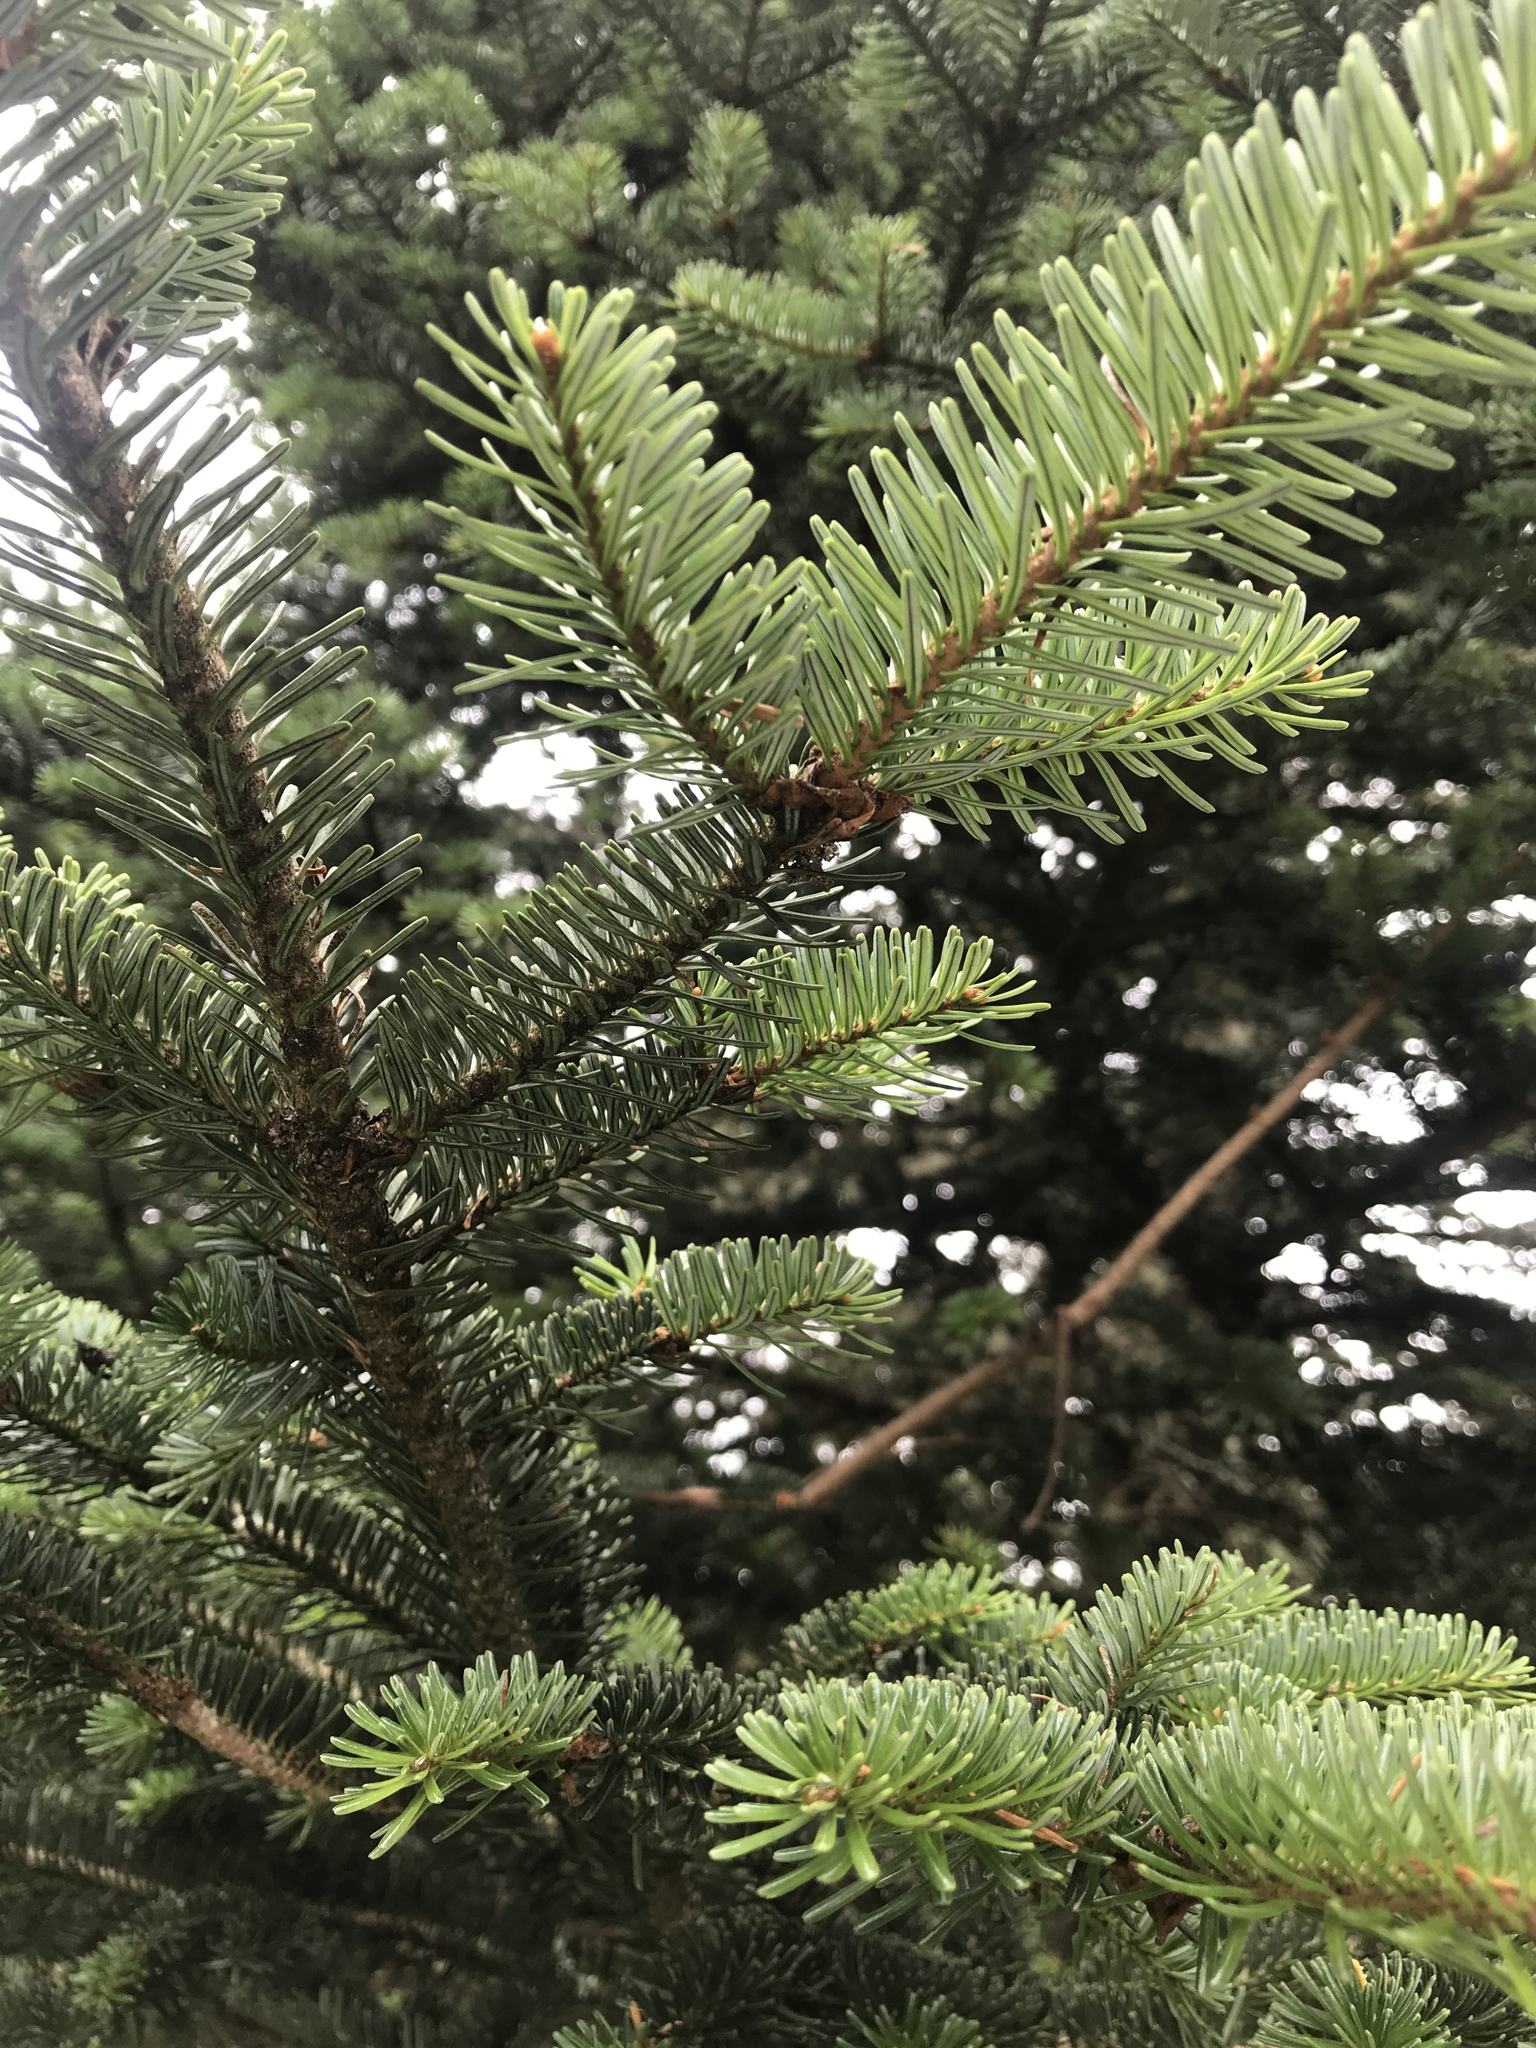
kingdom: Plantae
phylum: Tracheophyta
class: Pinopsida
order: Pinales
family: Pinaceae
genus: Abies
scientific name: Abies fraseri
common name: Fraser fir
